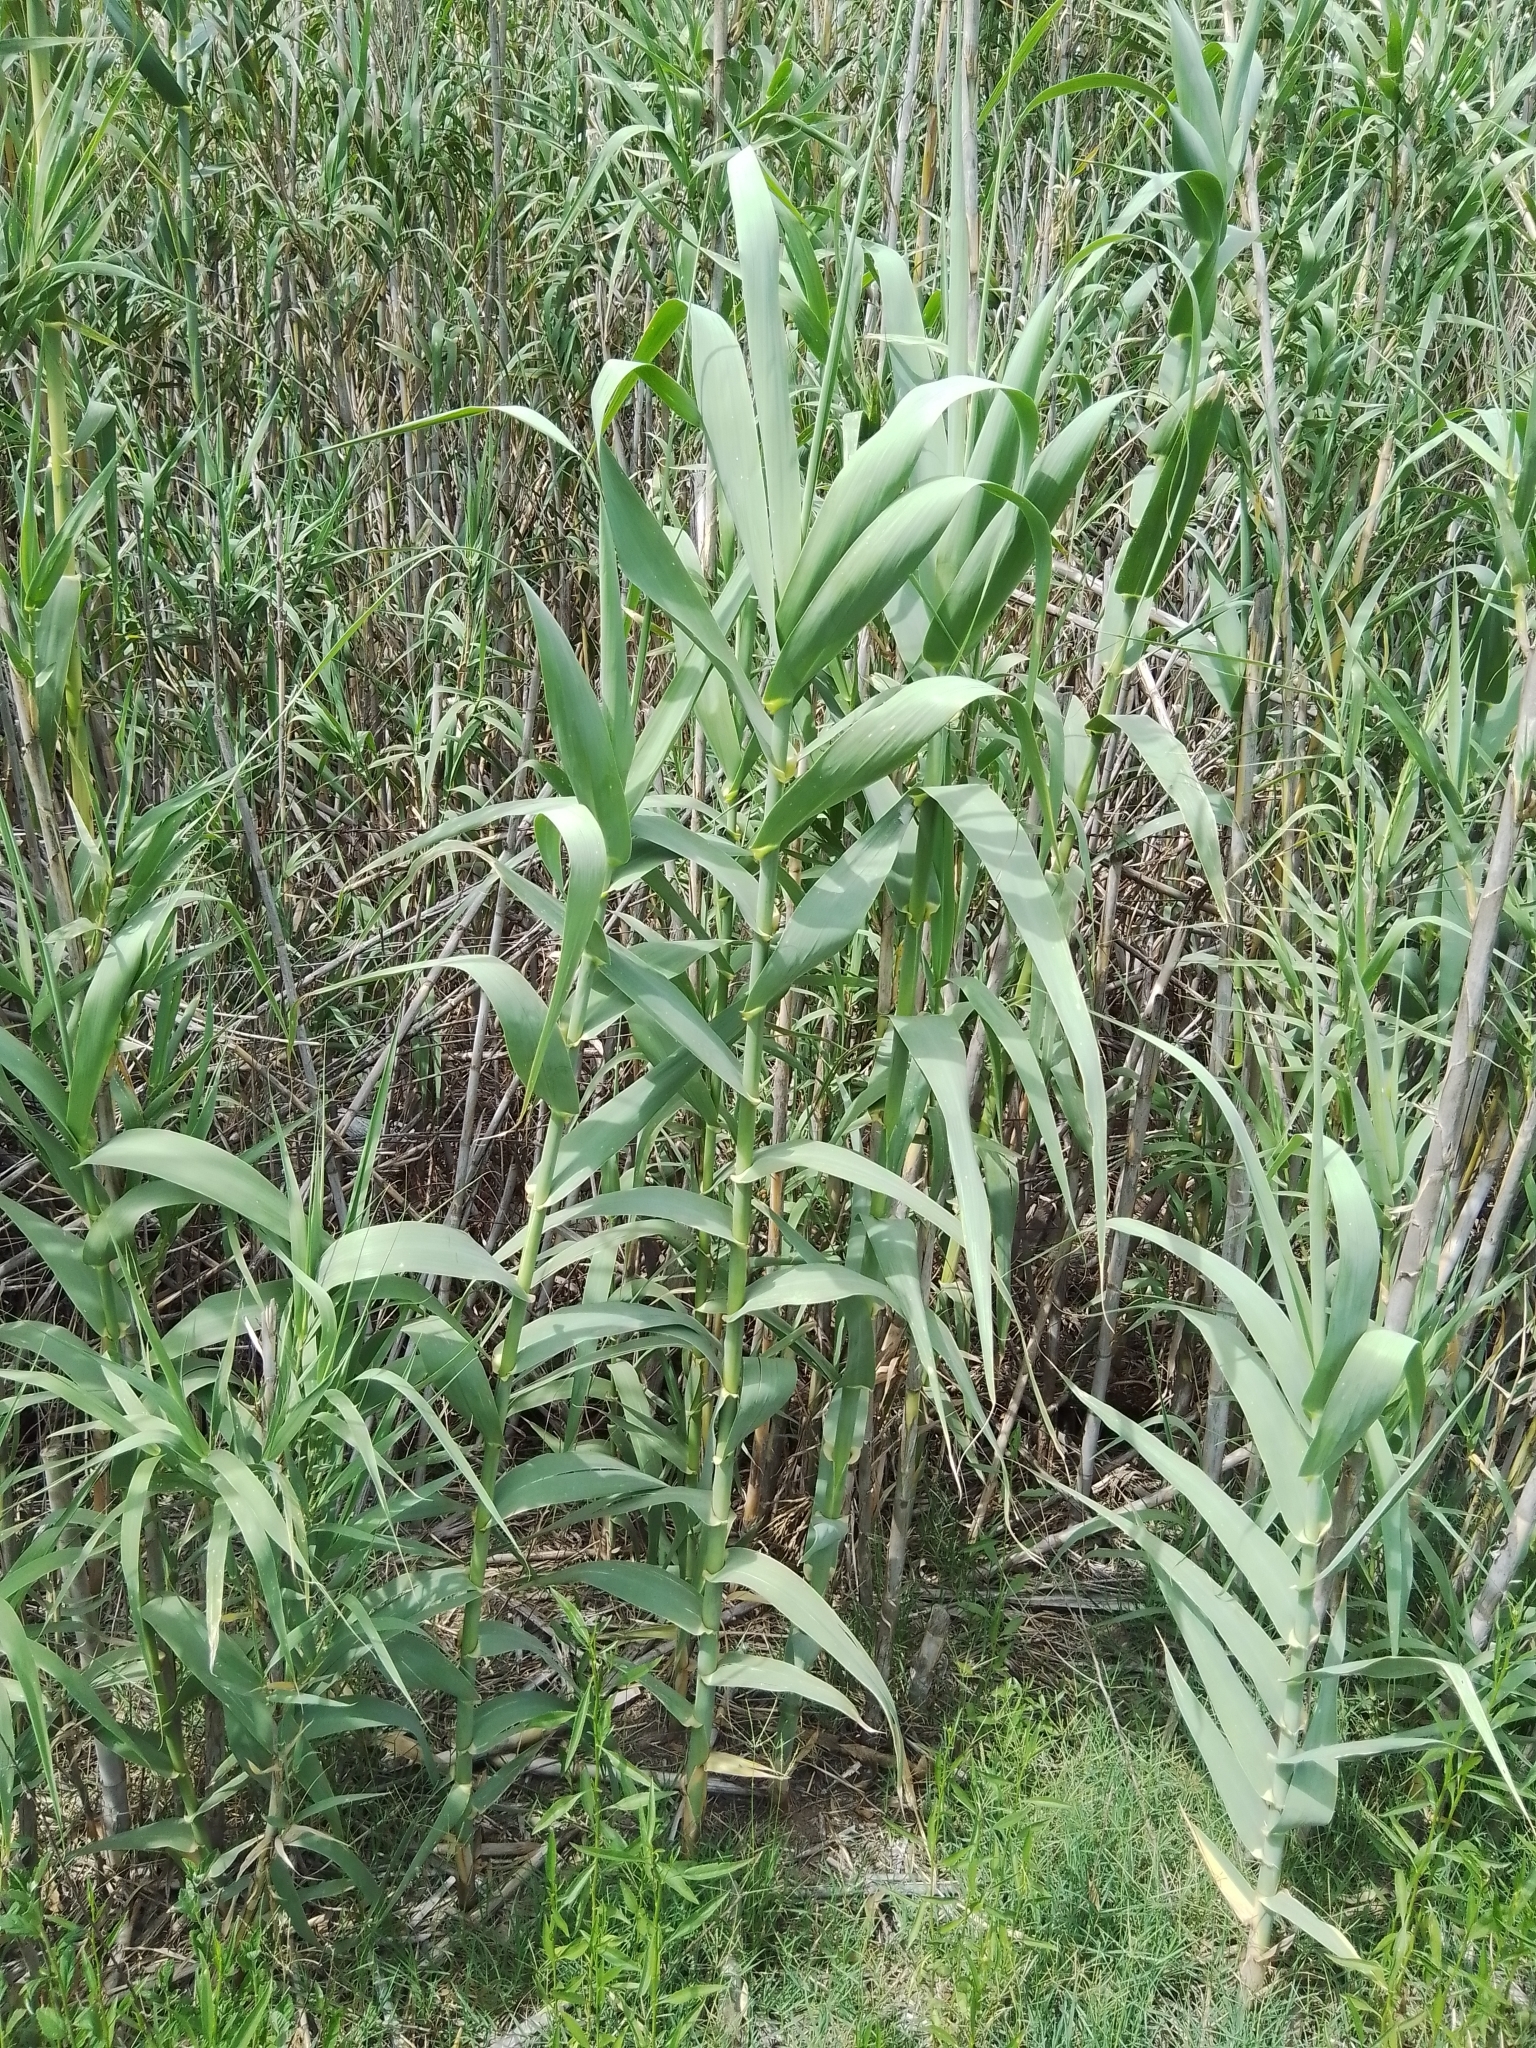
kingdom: Plantae
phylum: Tracheophyta
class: Liliopsida
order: Poales
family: Poaceae
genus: Arundo
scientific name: Arundo donax
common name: Giant reed
